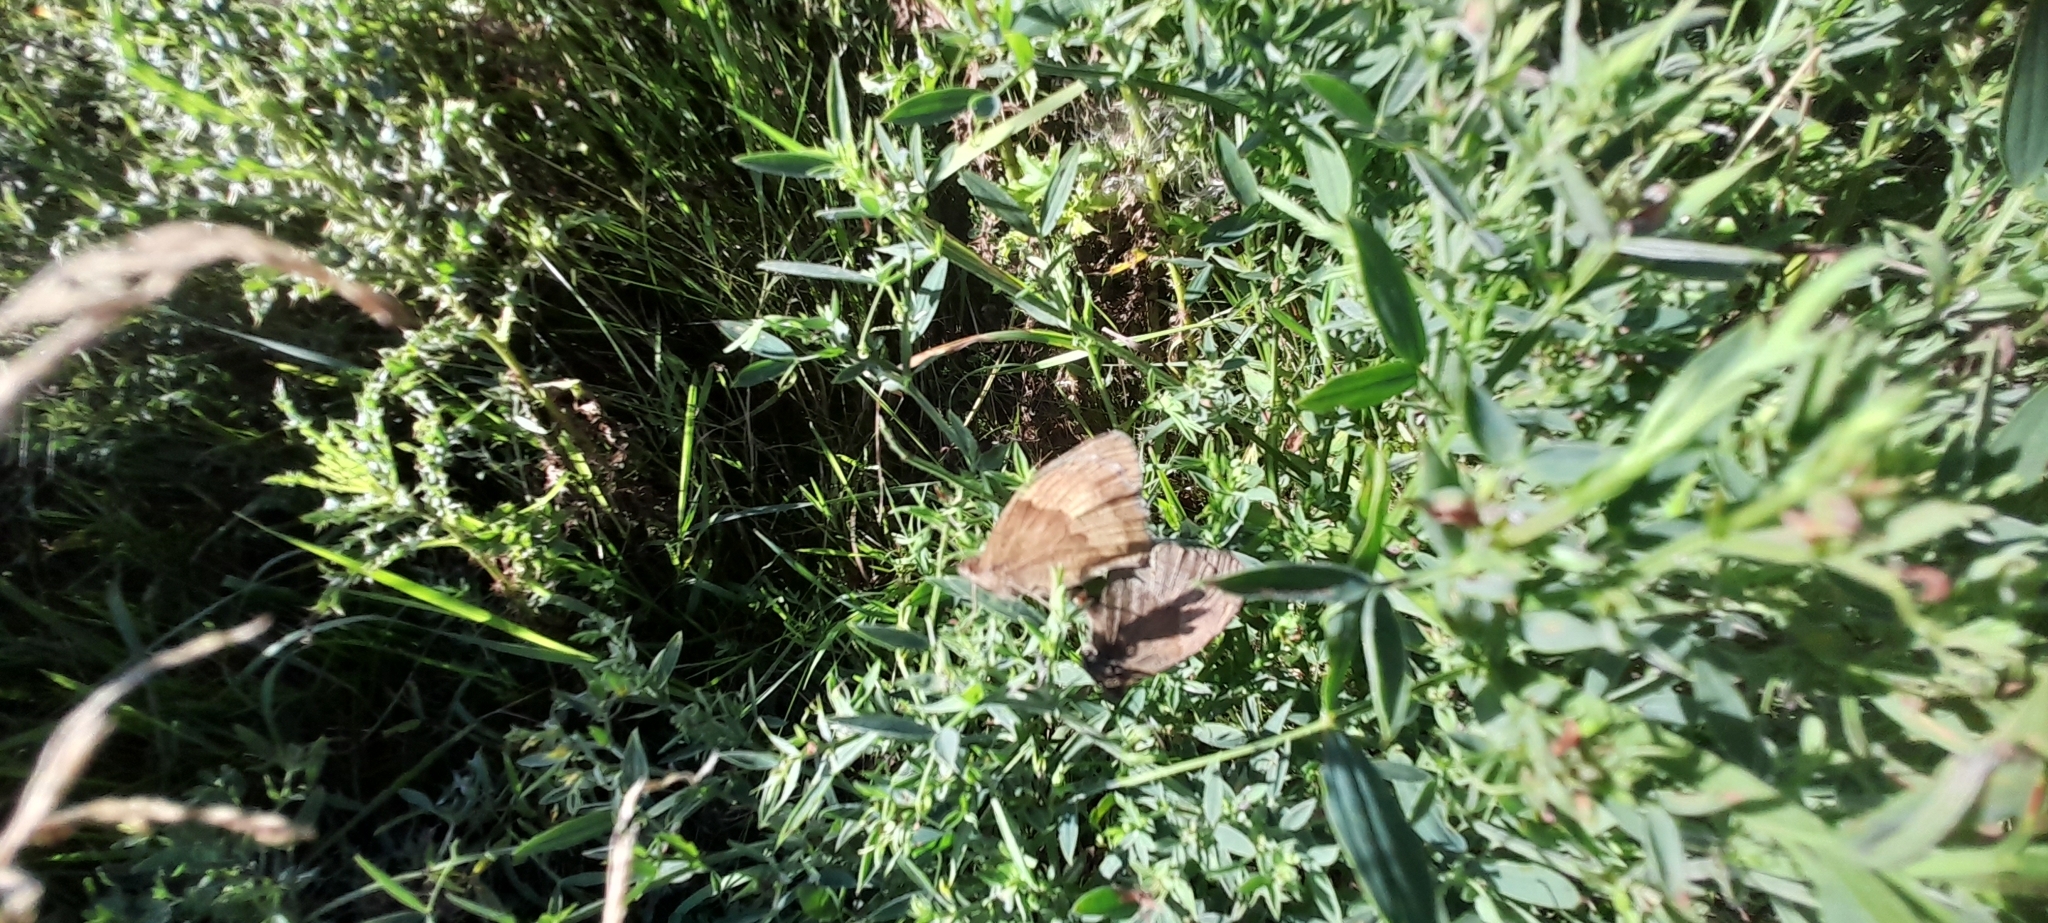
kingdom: Animalia
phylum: Arthropoda
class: Insecta
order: Lepidoptera
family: Nymphalidae
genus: Maniola
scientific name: Maniola jurtina
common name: Meadow brown
